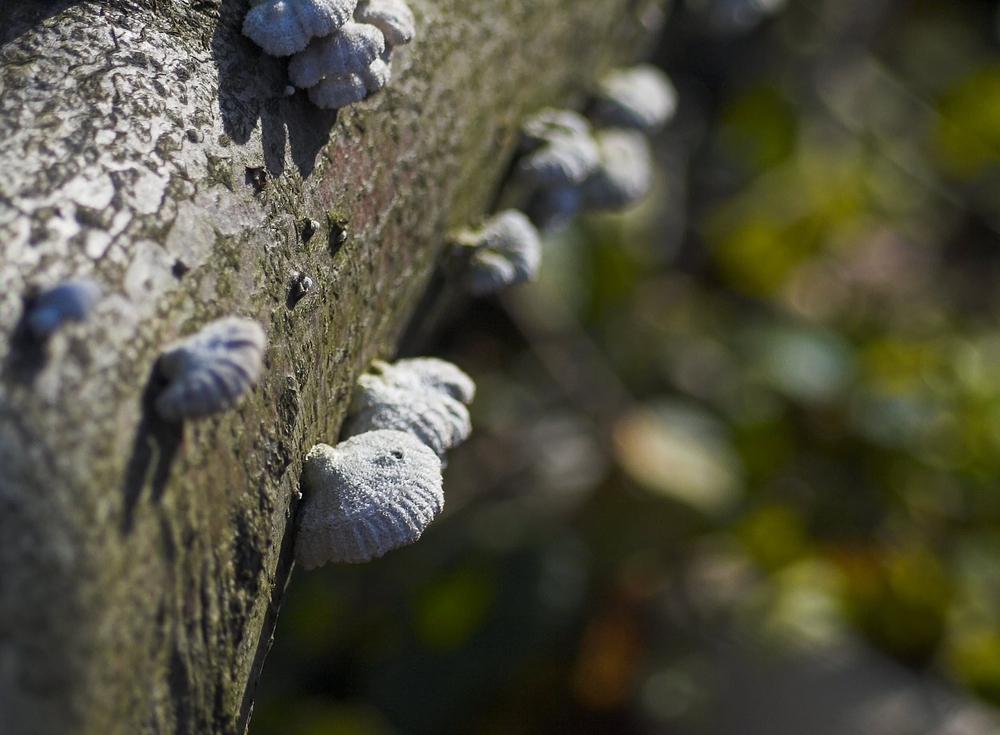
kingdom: Fungi
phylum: Basidiomycota
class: Agaricomycetes
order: Agaricales
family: Schizophyllaceae
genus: Schizophyllum
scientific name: Schizophyllum commune
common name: Common porecrust
